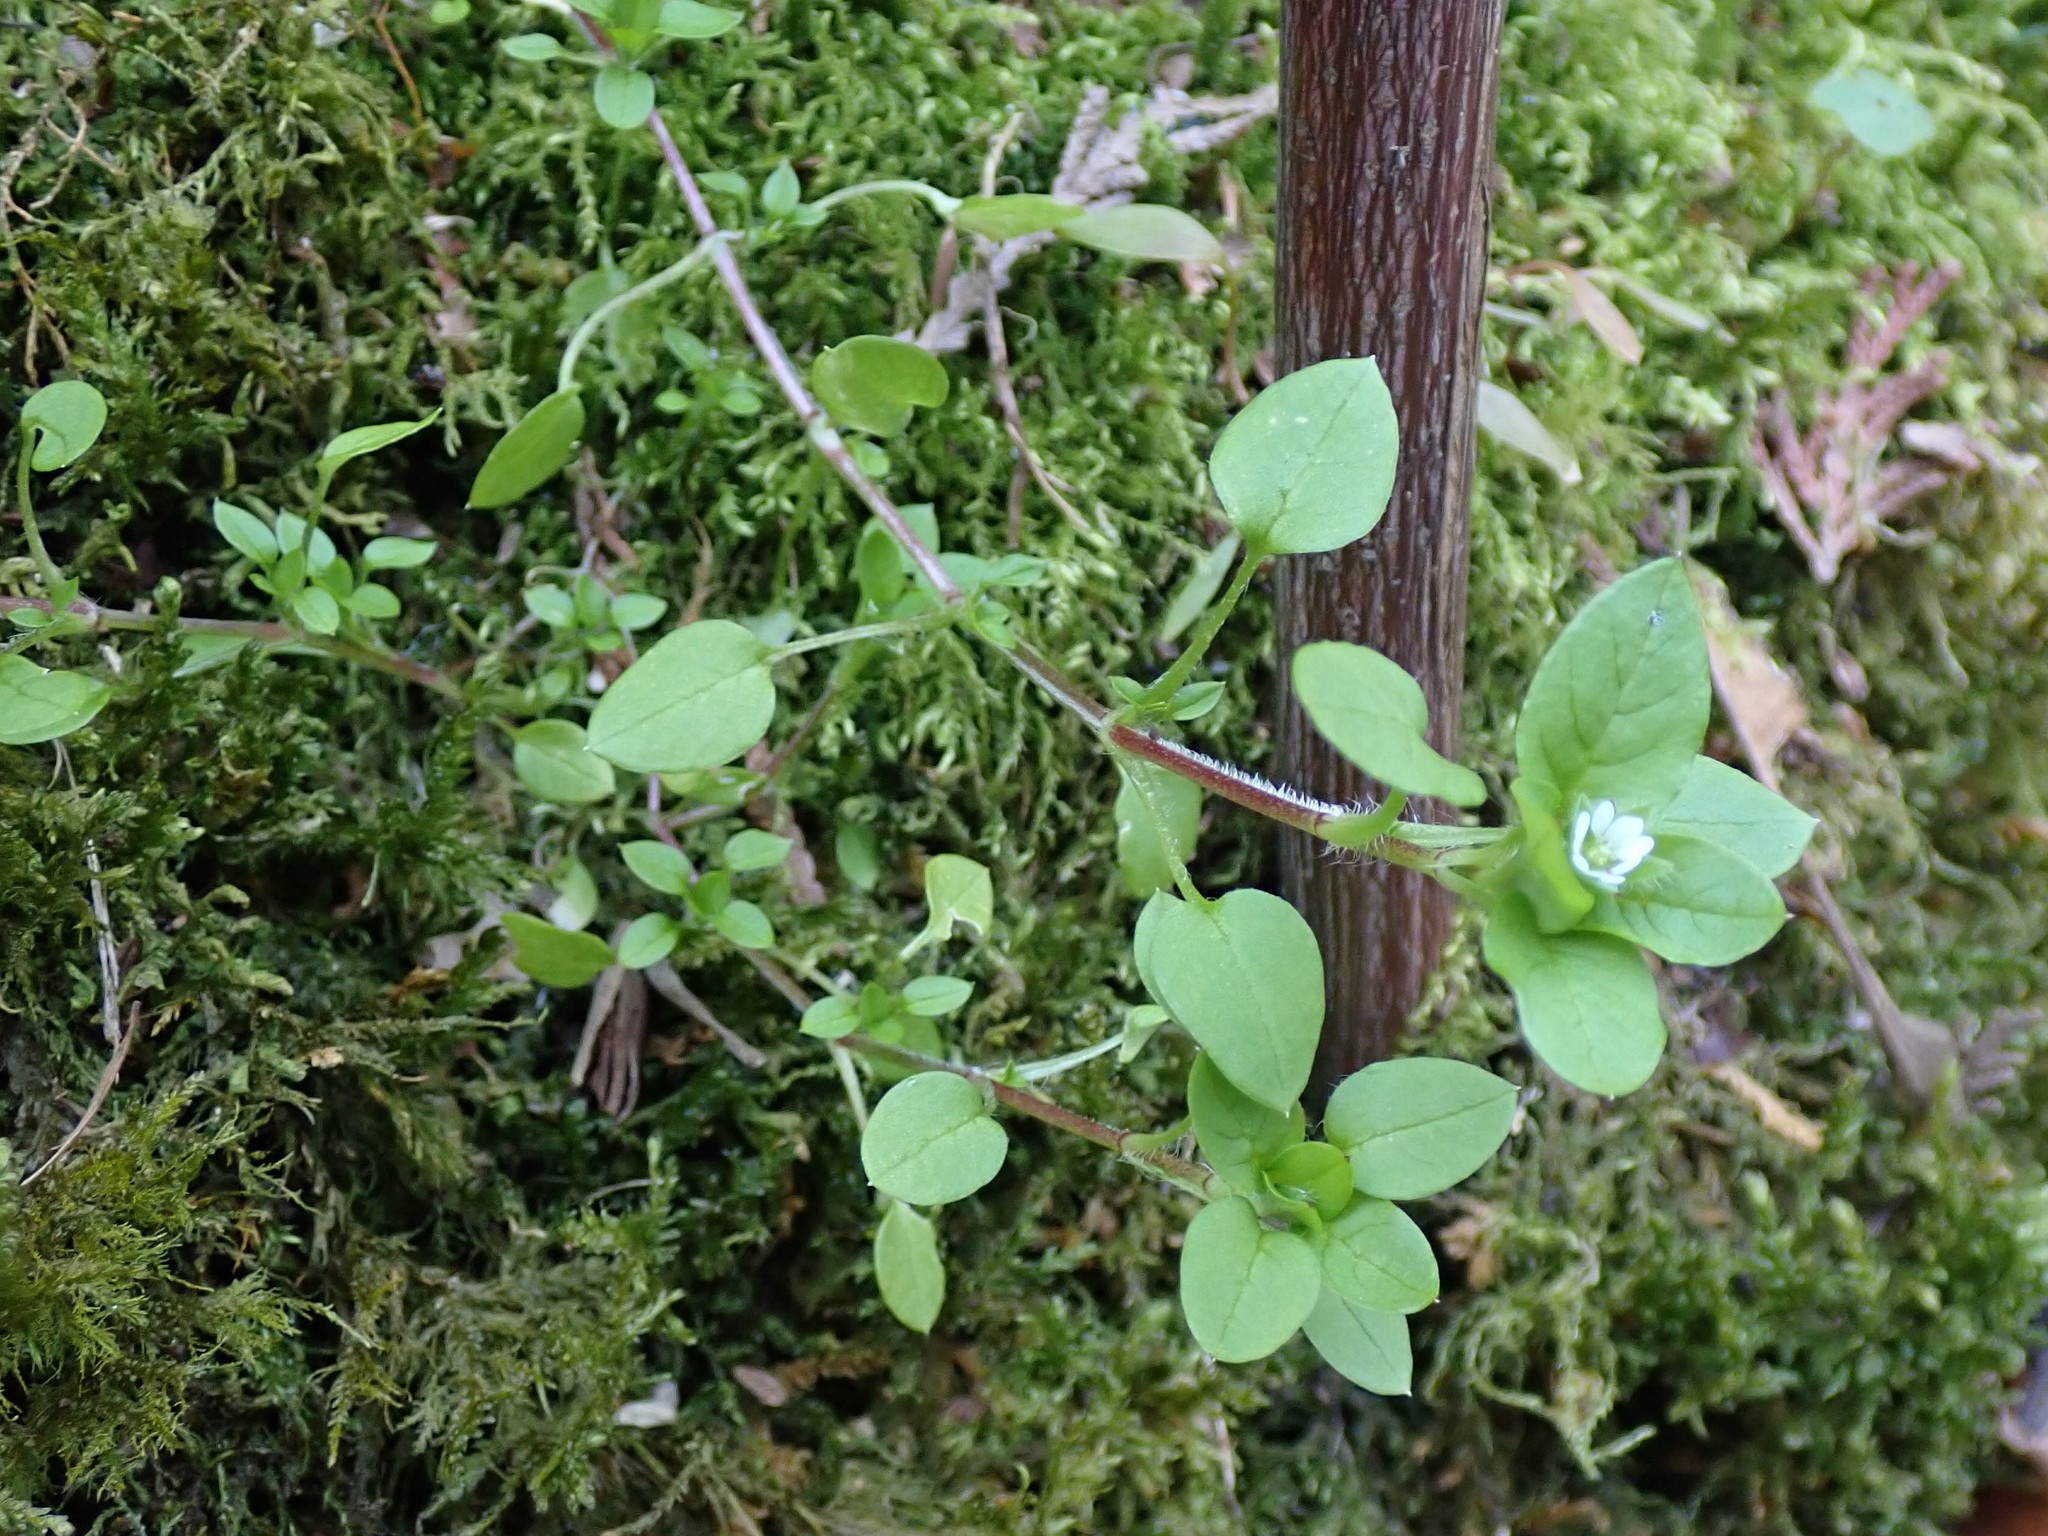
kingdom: Plantae
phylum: Tracheophyta
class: Magnoliopsida
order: Caryophyllales
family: Caryophyllaceae
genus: Stellaria
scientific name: Stellaria media
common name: Common chickweed
